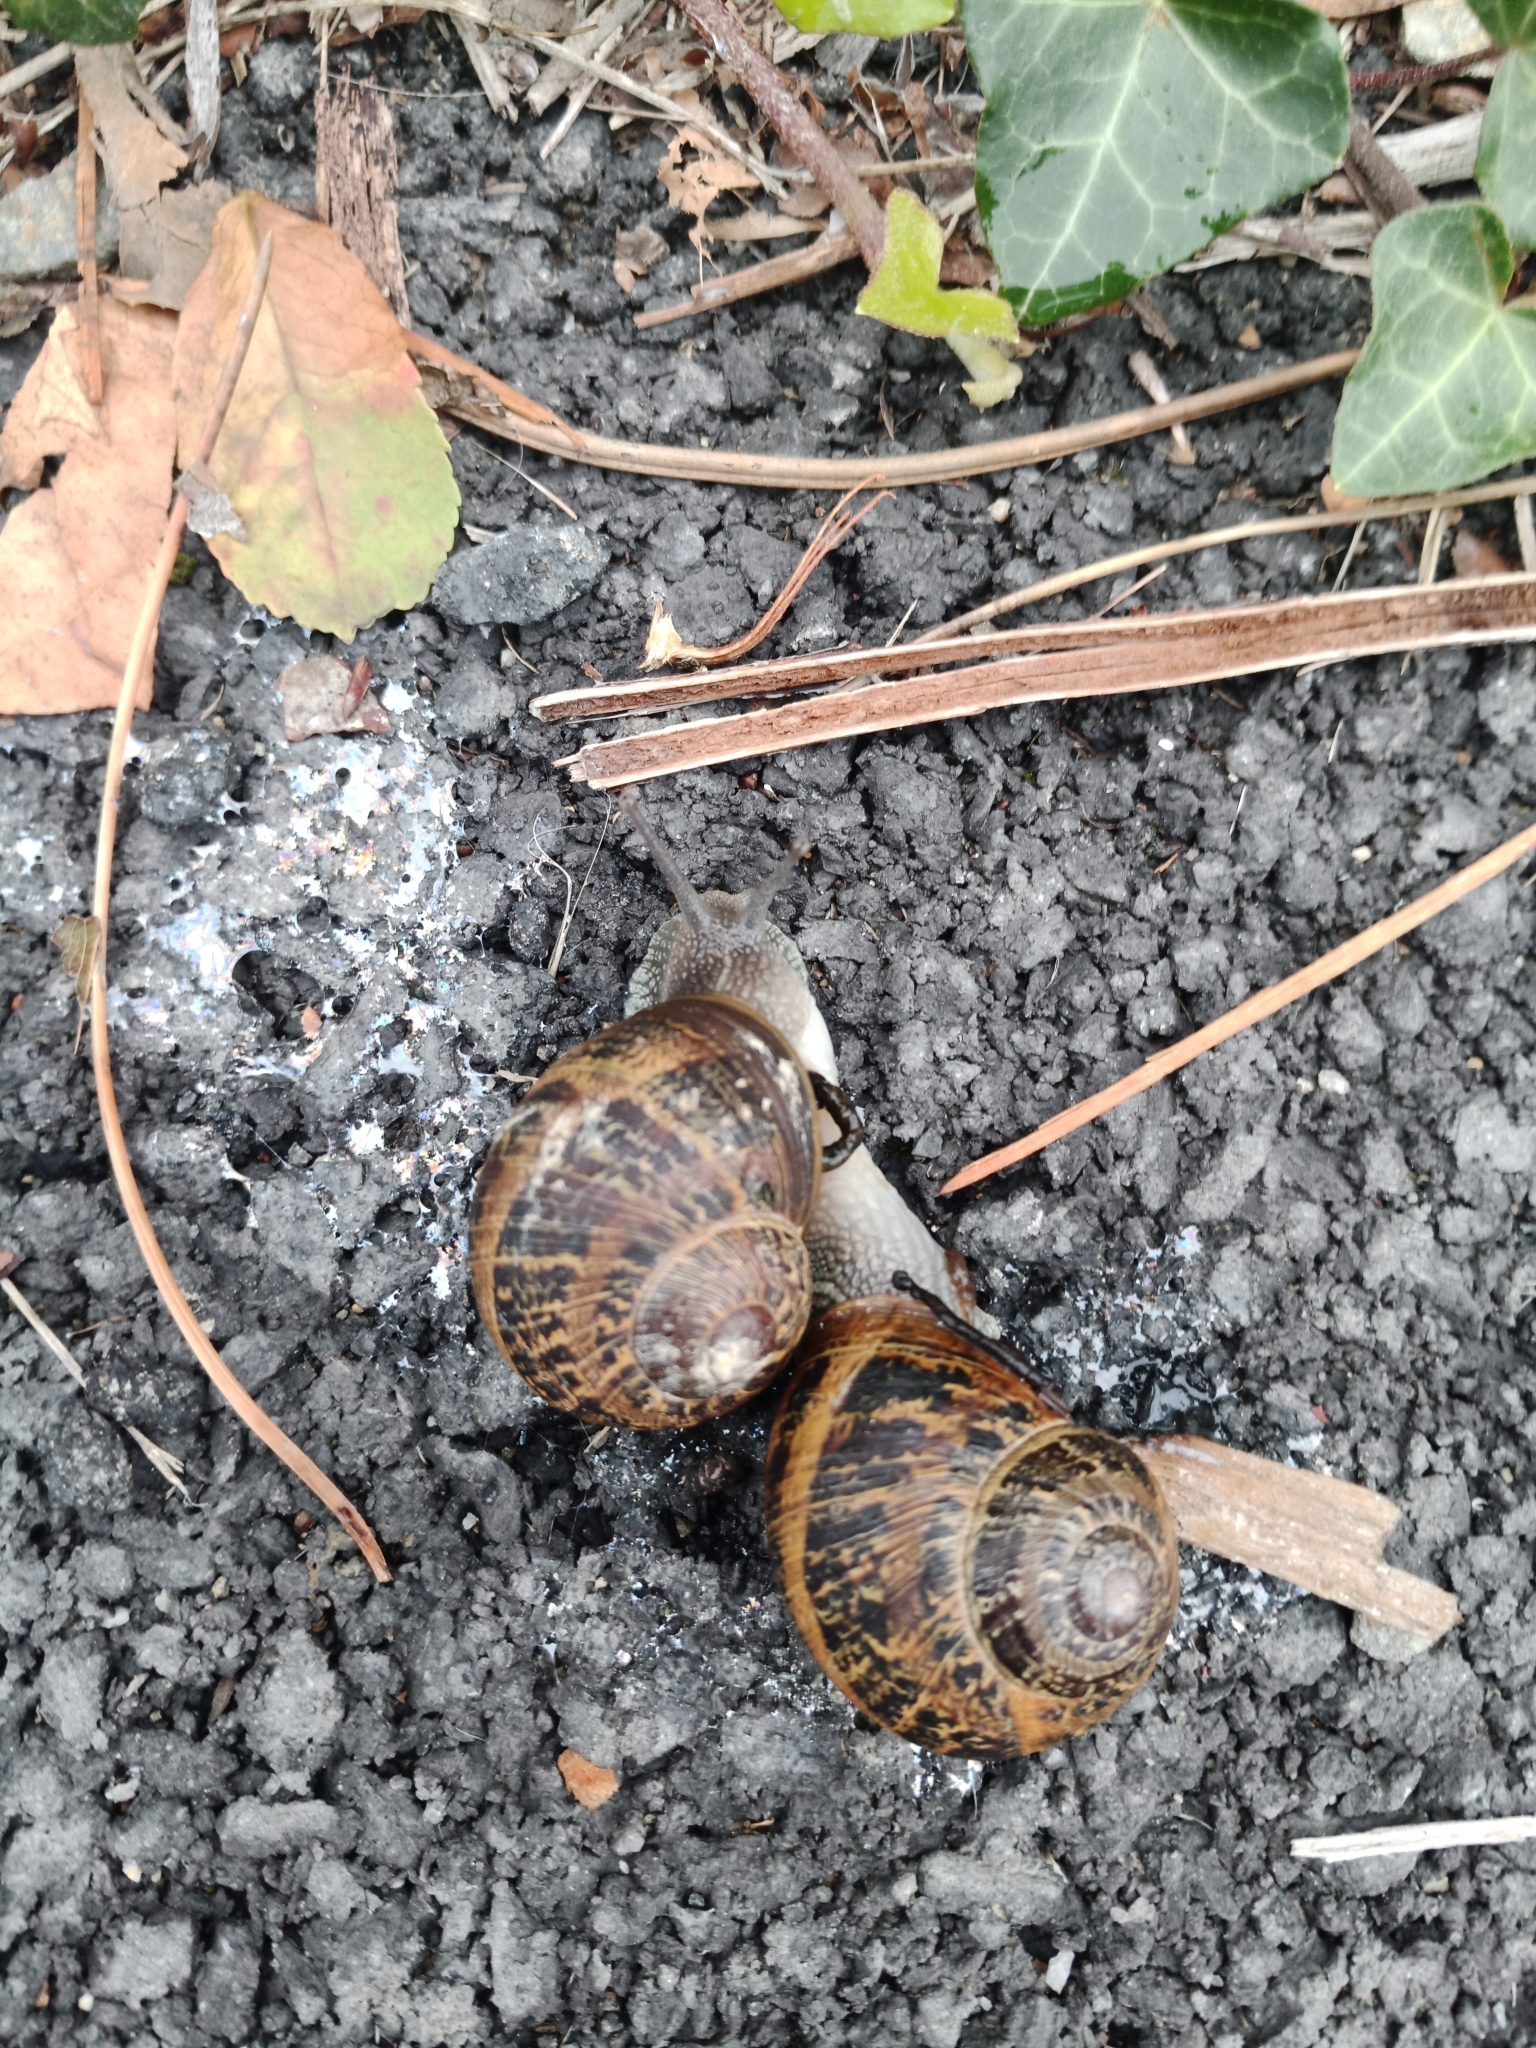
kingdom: Animalia
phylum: Mollusca
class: Gastropoda
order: Stylommatophora
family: Helicidae
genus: Cornu
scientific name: Cornu aspersum
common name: Brown garden snail
